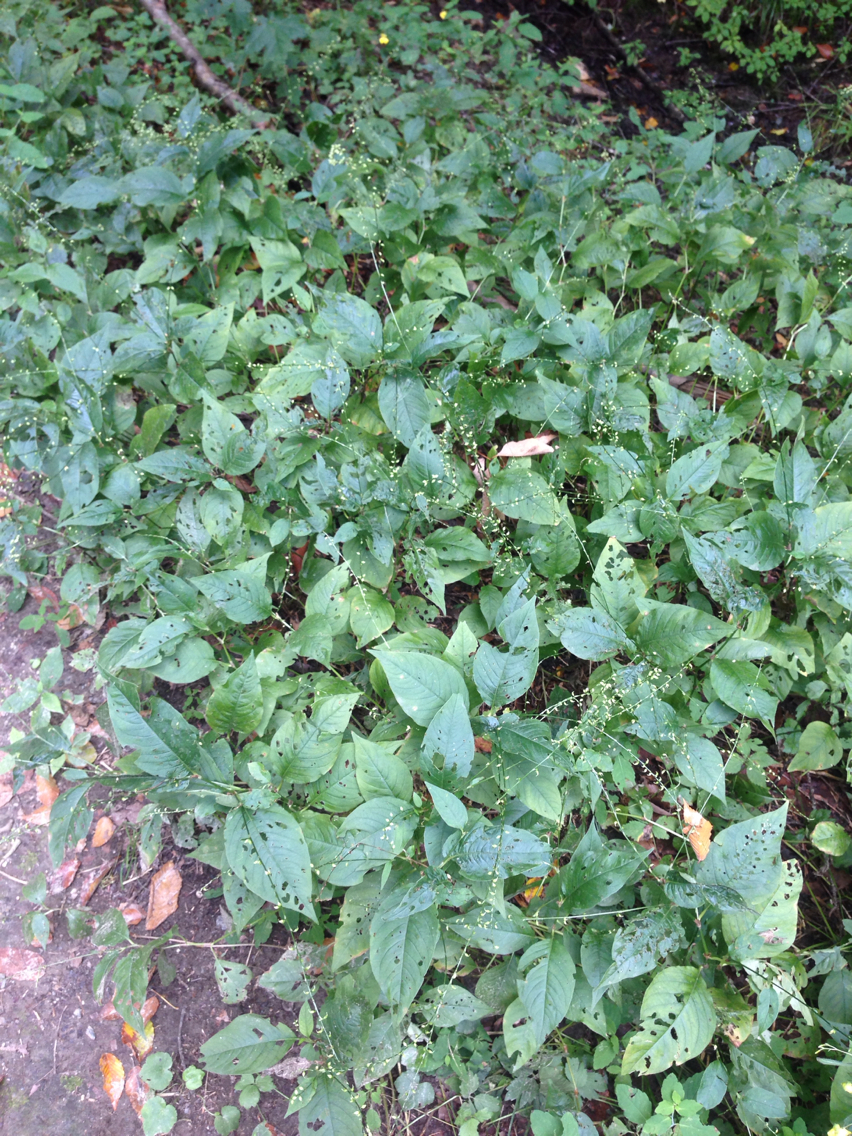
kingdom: Plantae
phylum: Tracheophyta
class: Magnoliopsida
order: Caryophyllales
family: Polygonaceae
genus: Persicaria
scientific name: Persicaria virginiana
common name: Jumpseed
